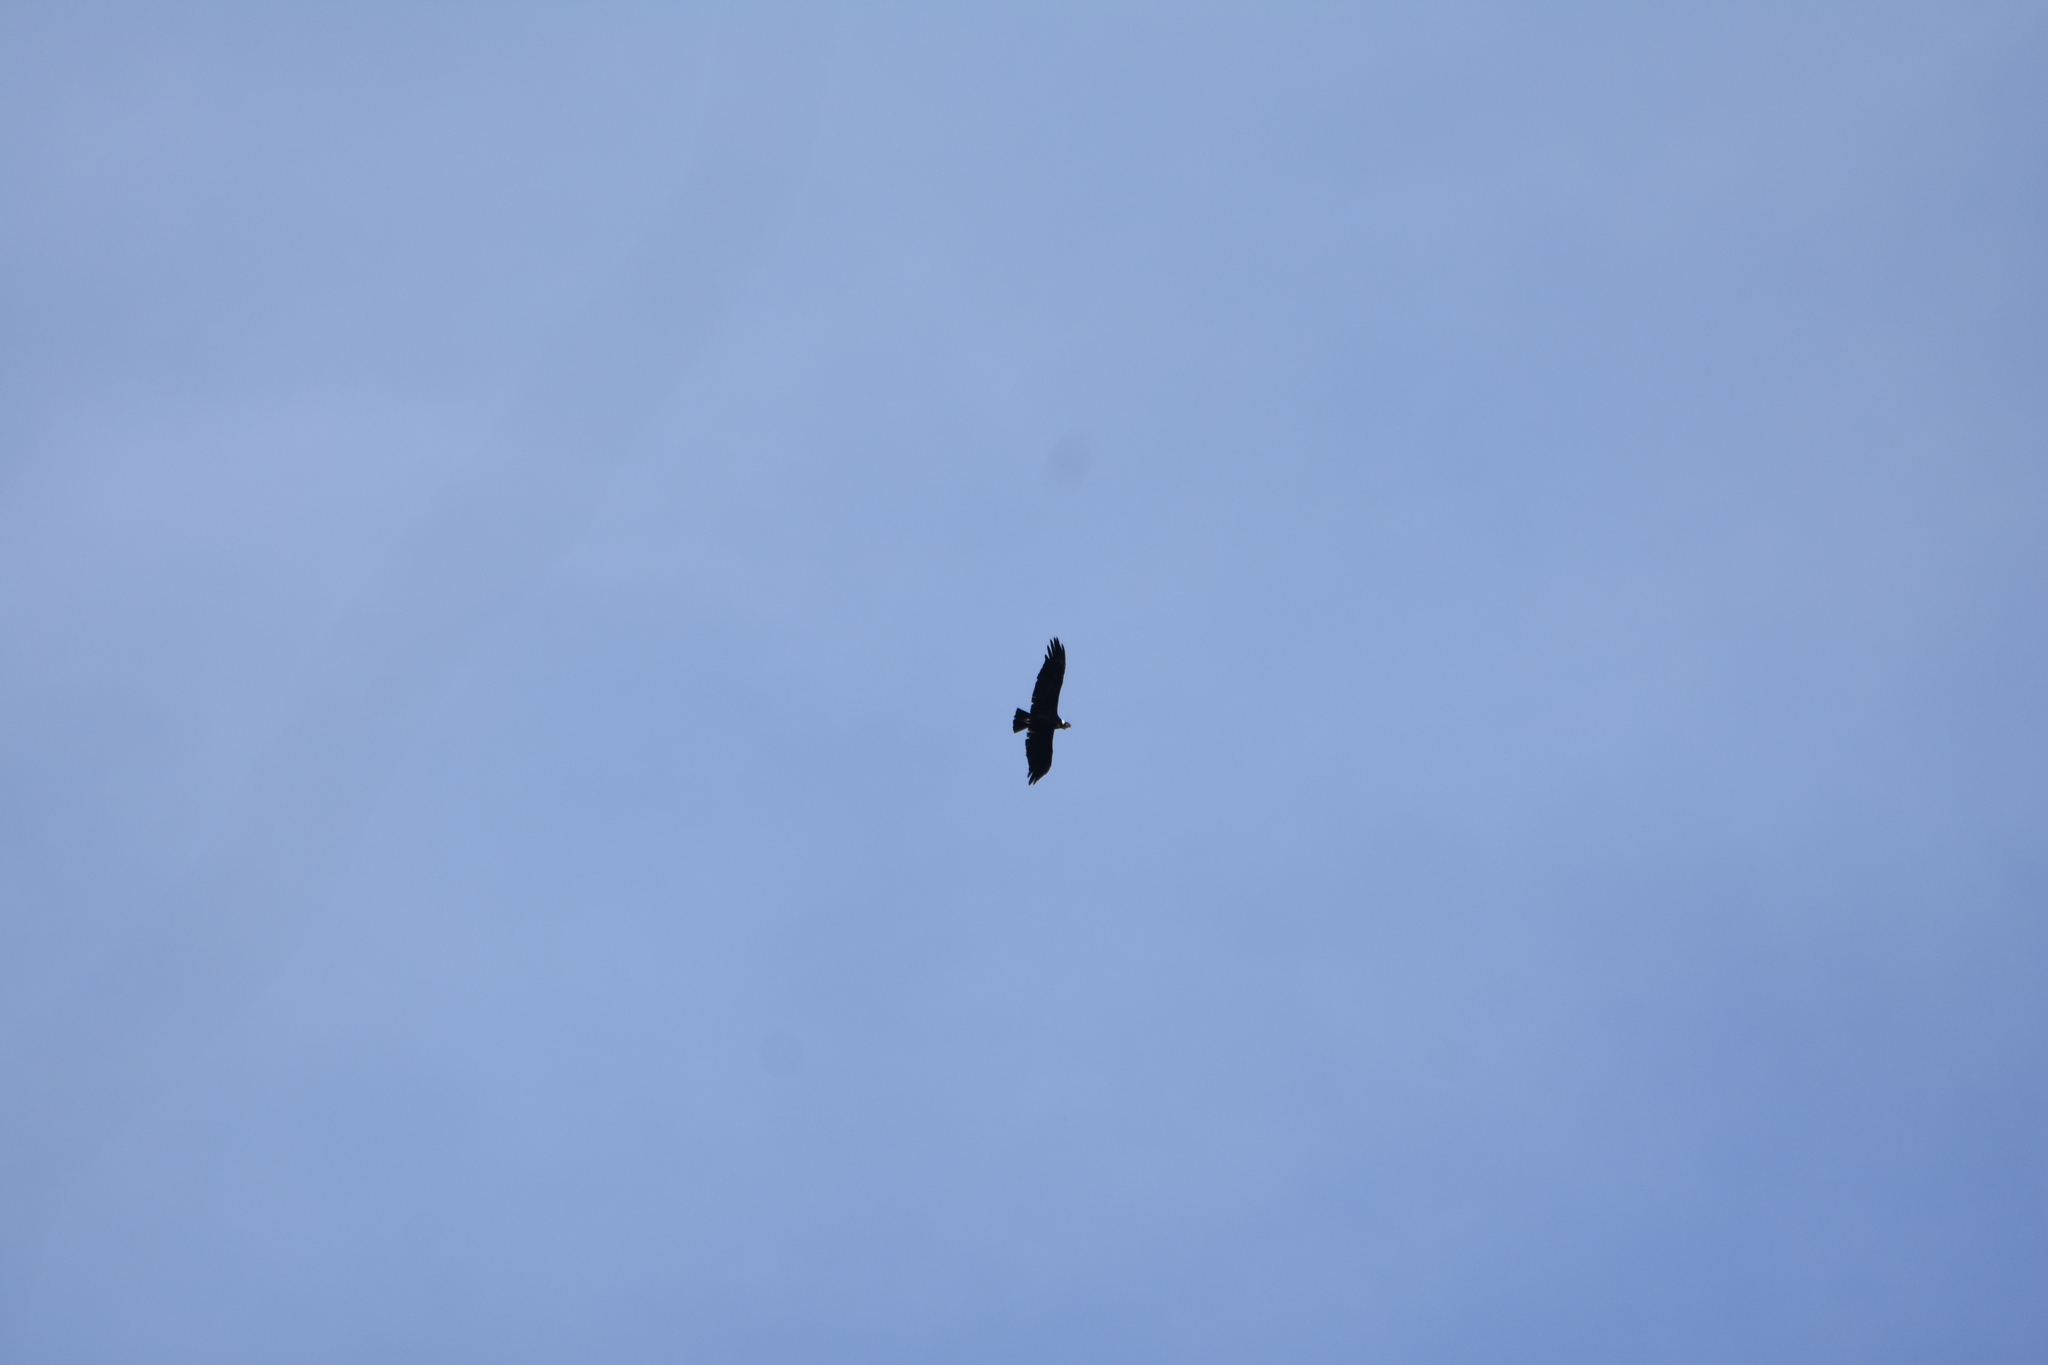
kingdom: Animalia
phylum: Chordata
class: Aves
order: Accipitriformes
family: Cathartidae
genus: Vultur
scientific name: Vultur gryphus
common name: Andean condor
